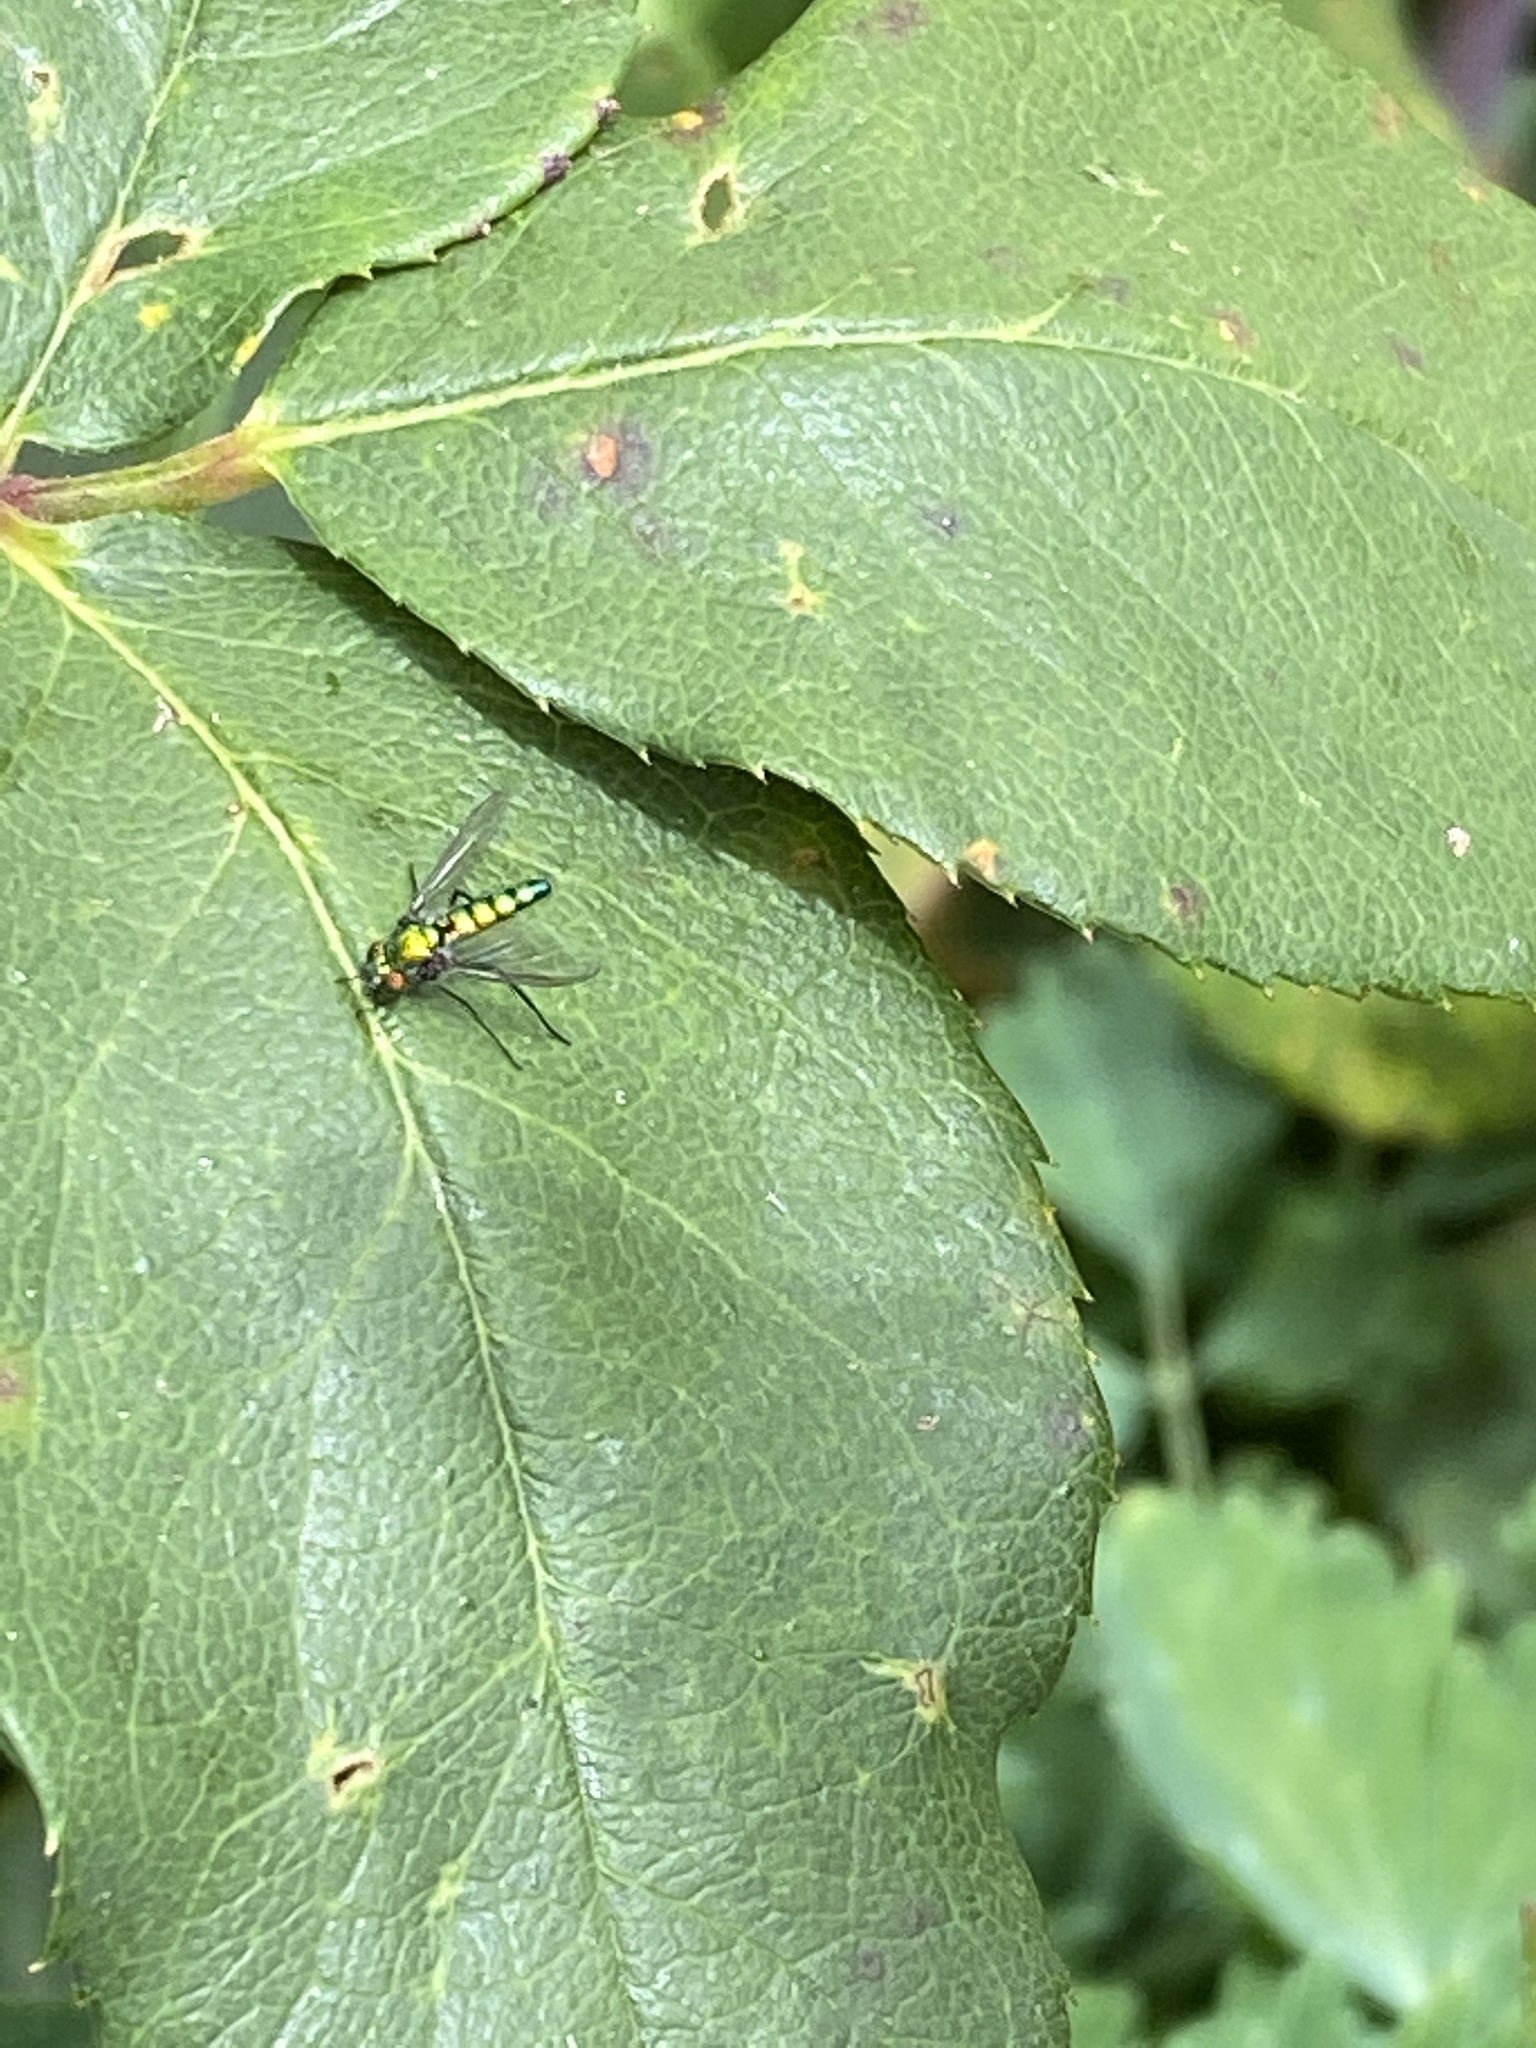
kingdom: Animalia
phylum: Arthropoda
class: Insecta
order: Diptera
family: Dolichopodidae
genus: Condylostylus
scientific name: Condylostylus longicornis
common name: Long-legged fly
